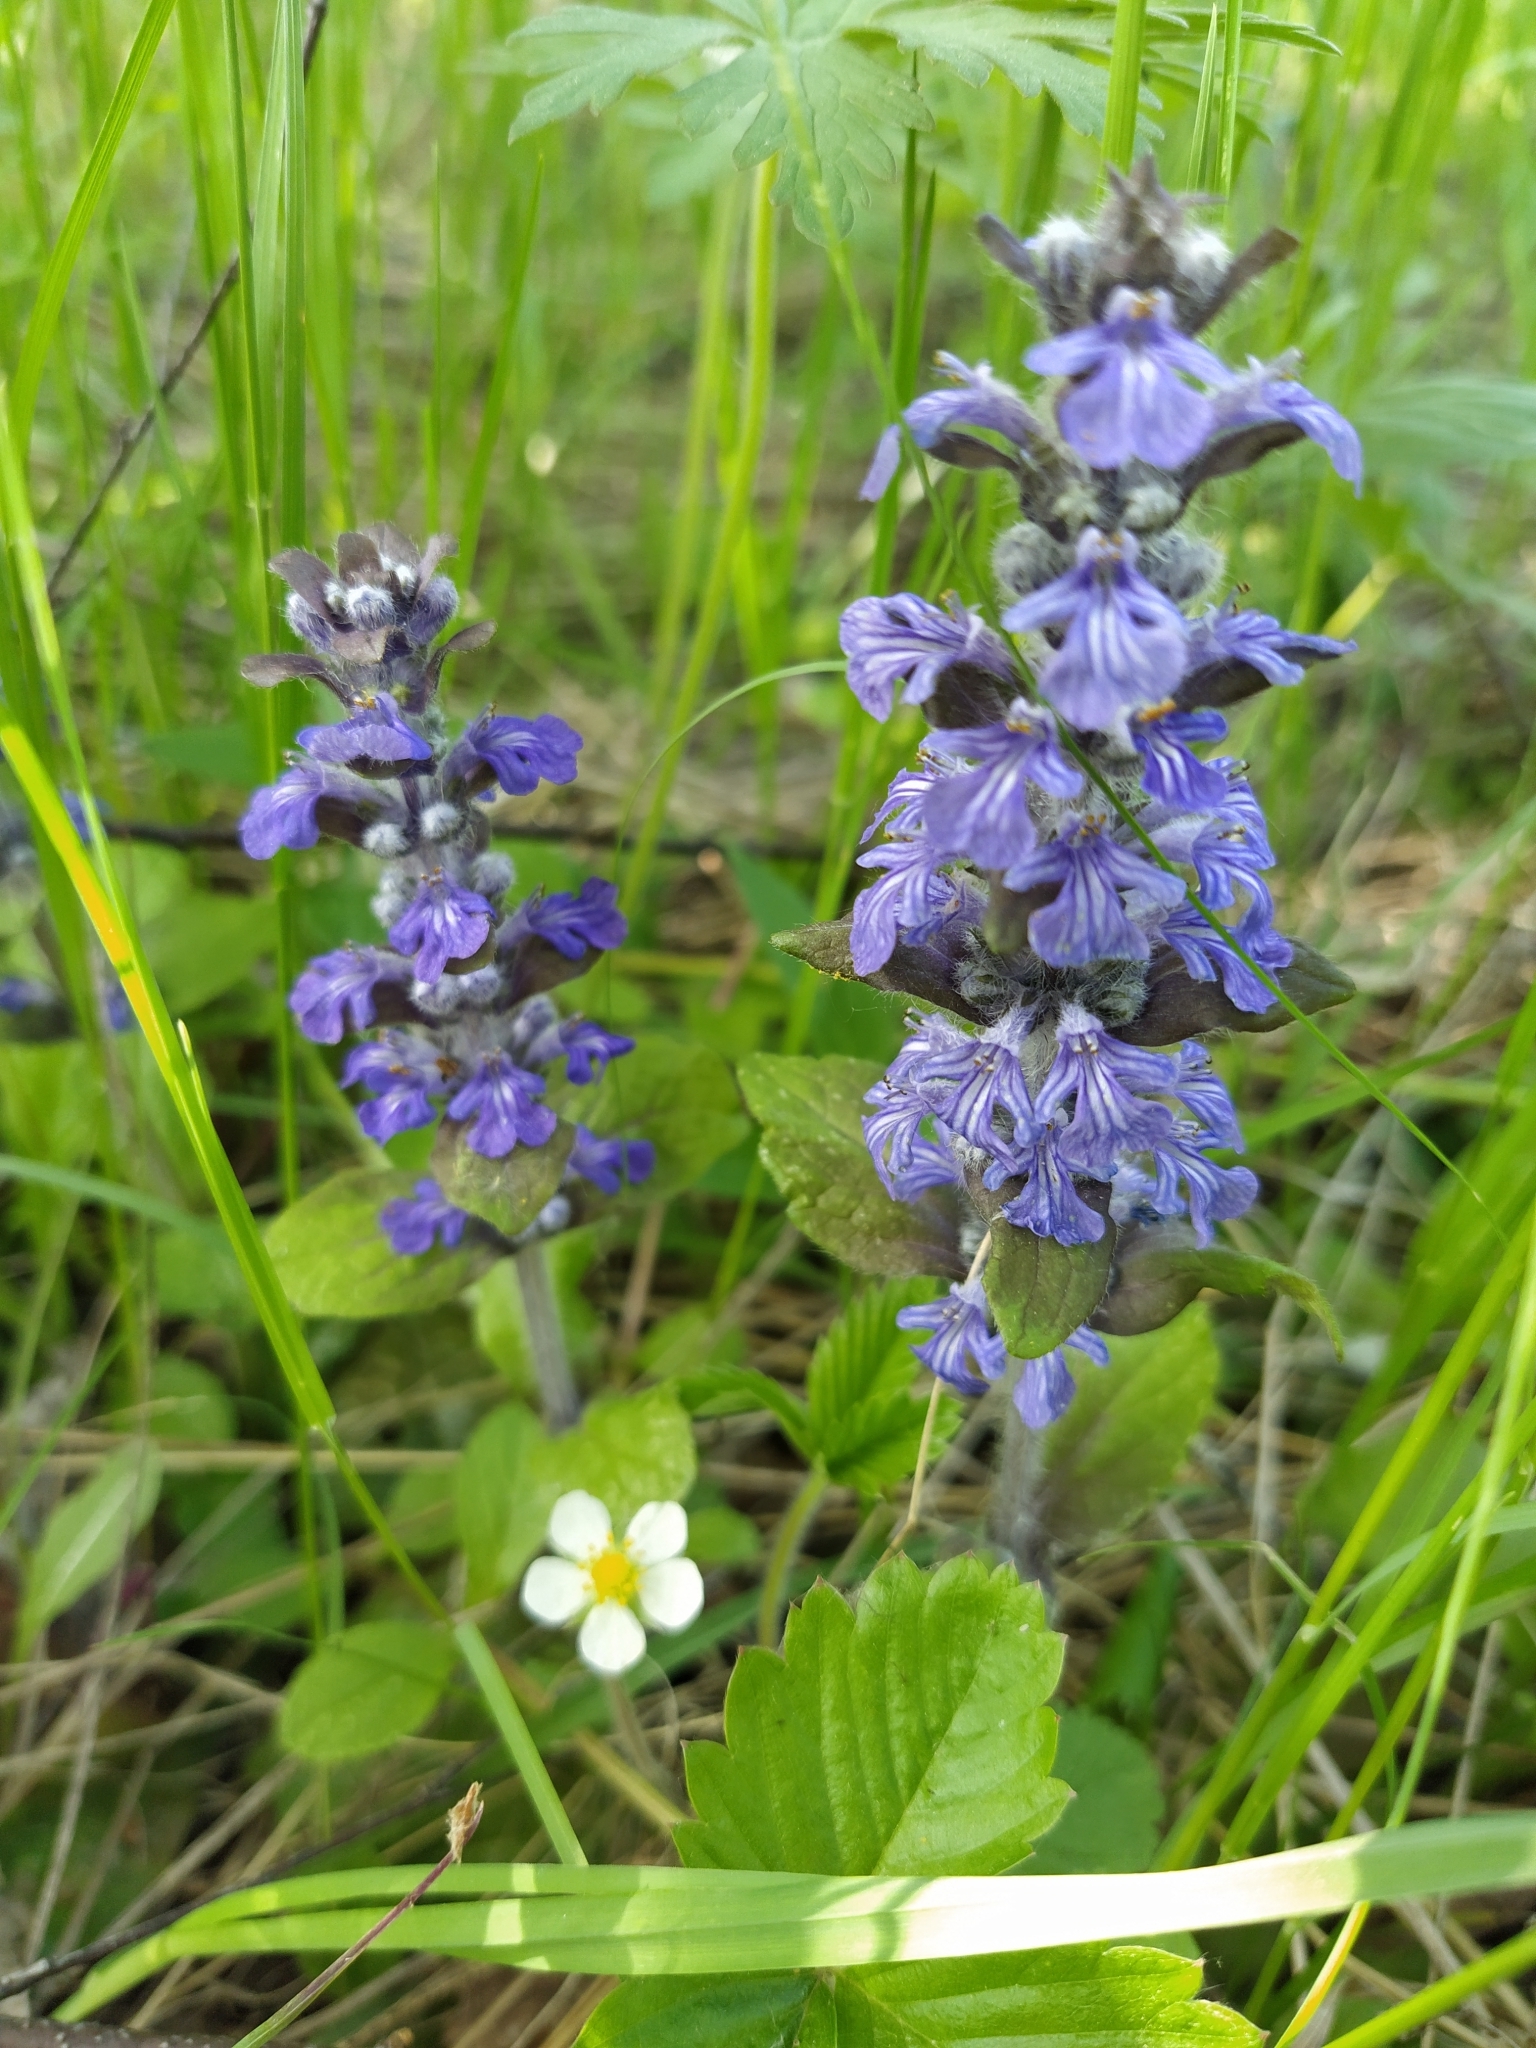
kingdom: Plantae
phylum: Tracheophyta
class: Magnoliopsida
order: Lamiales
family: Lamiaceae
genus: Ajuga
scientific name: Ajuga reptans
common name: Bugle
